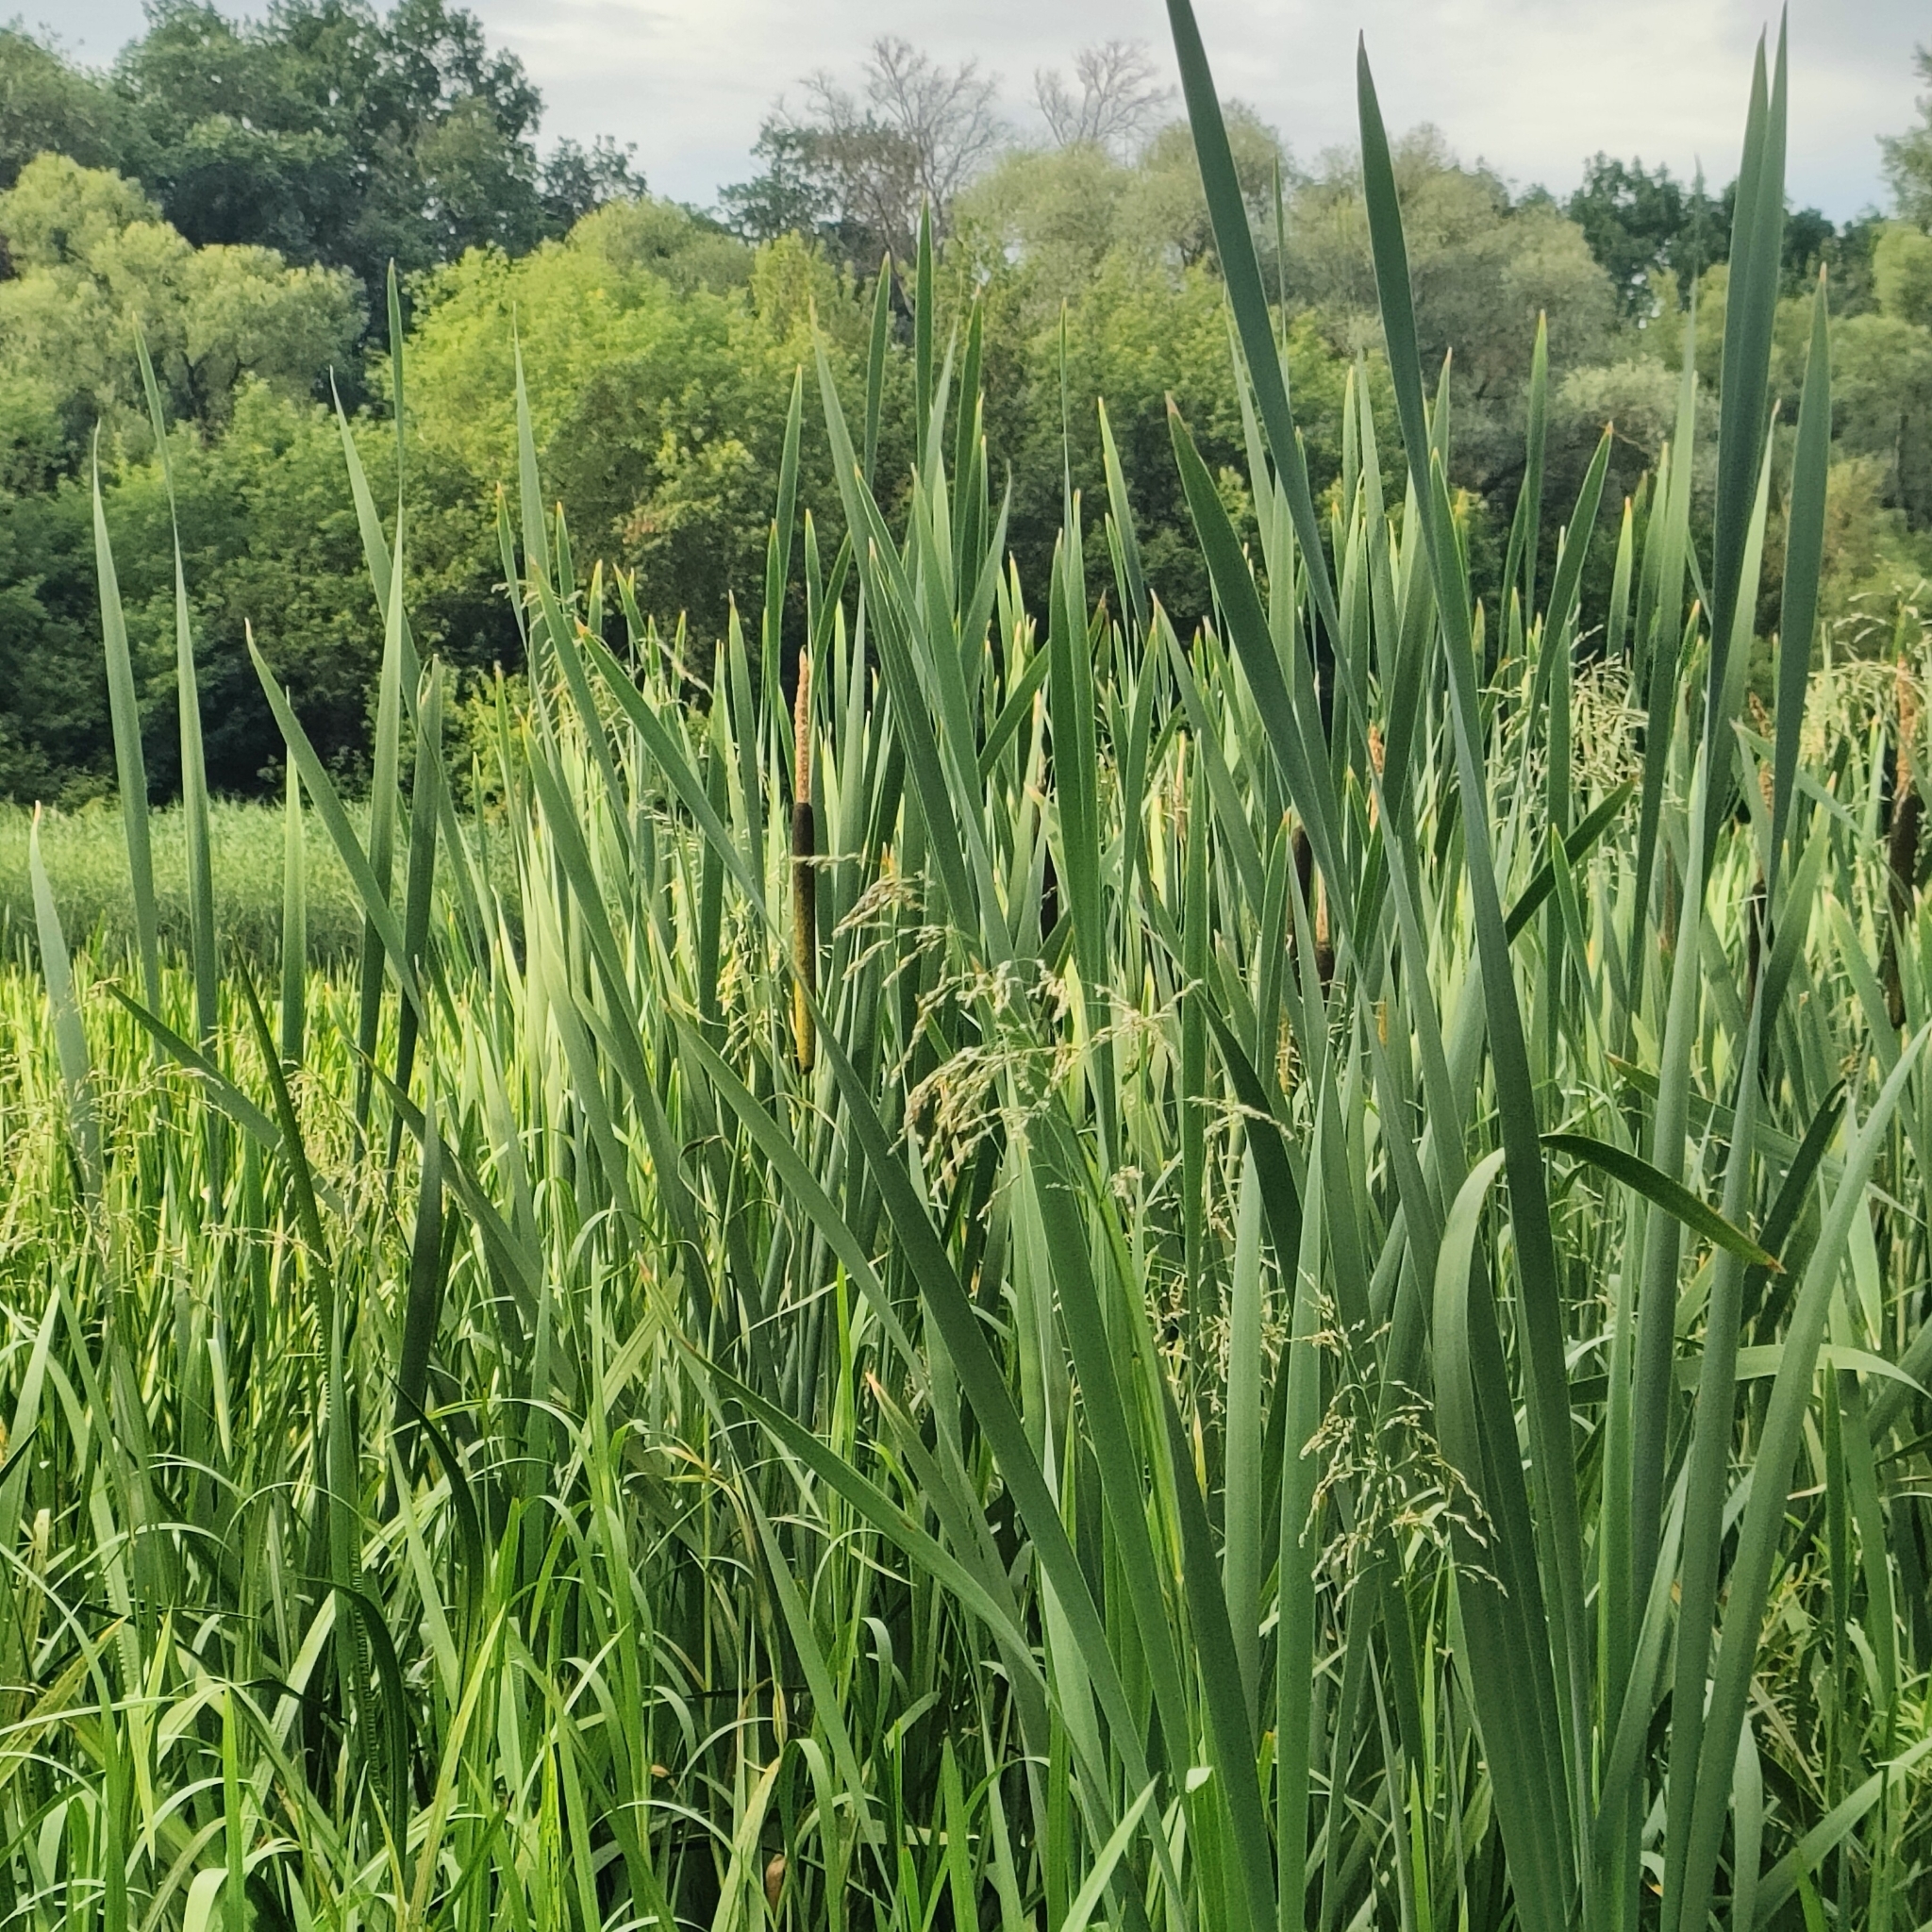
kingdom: Plantae
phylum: Tracheophyta
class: Liliopsida
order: Poales
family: Typhaceae
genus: Typha
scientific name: Typha latifolia
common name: Broadleaf cattail
